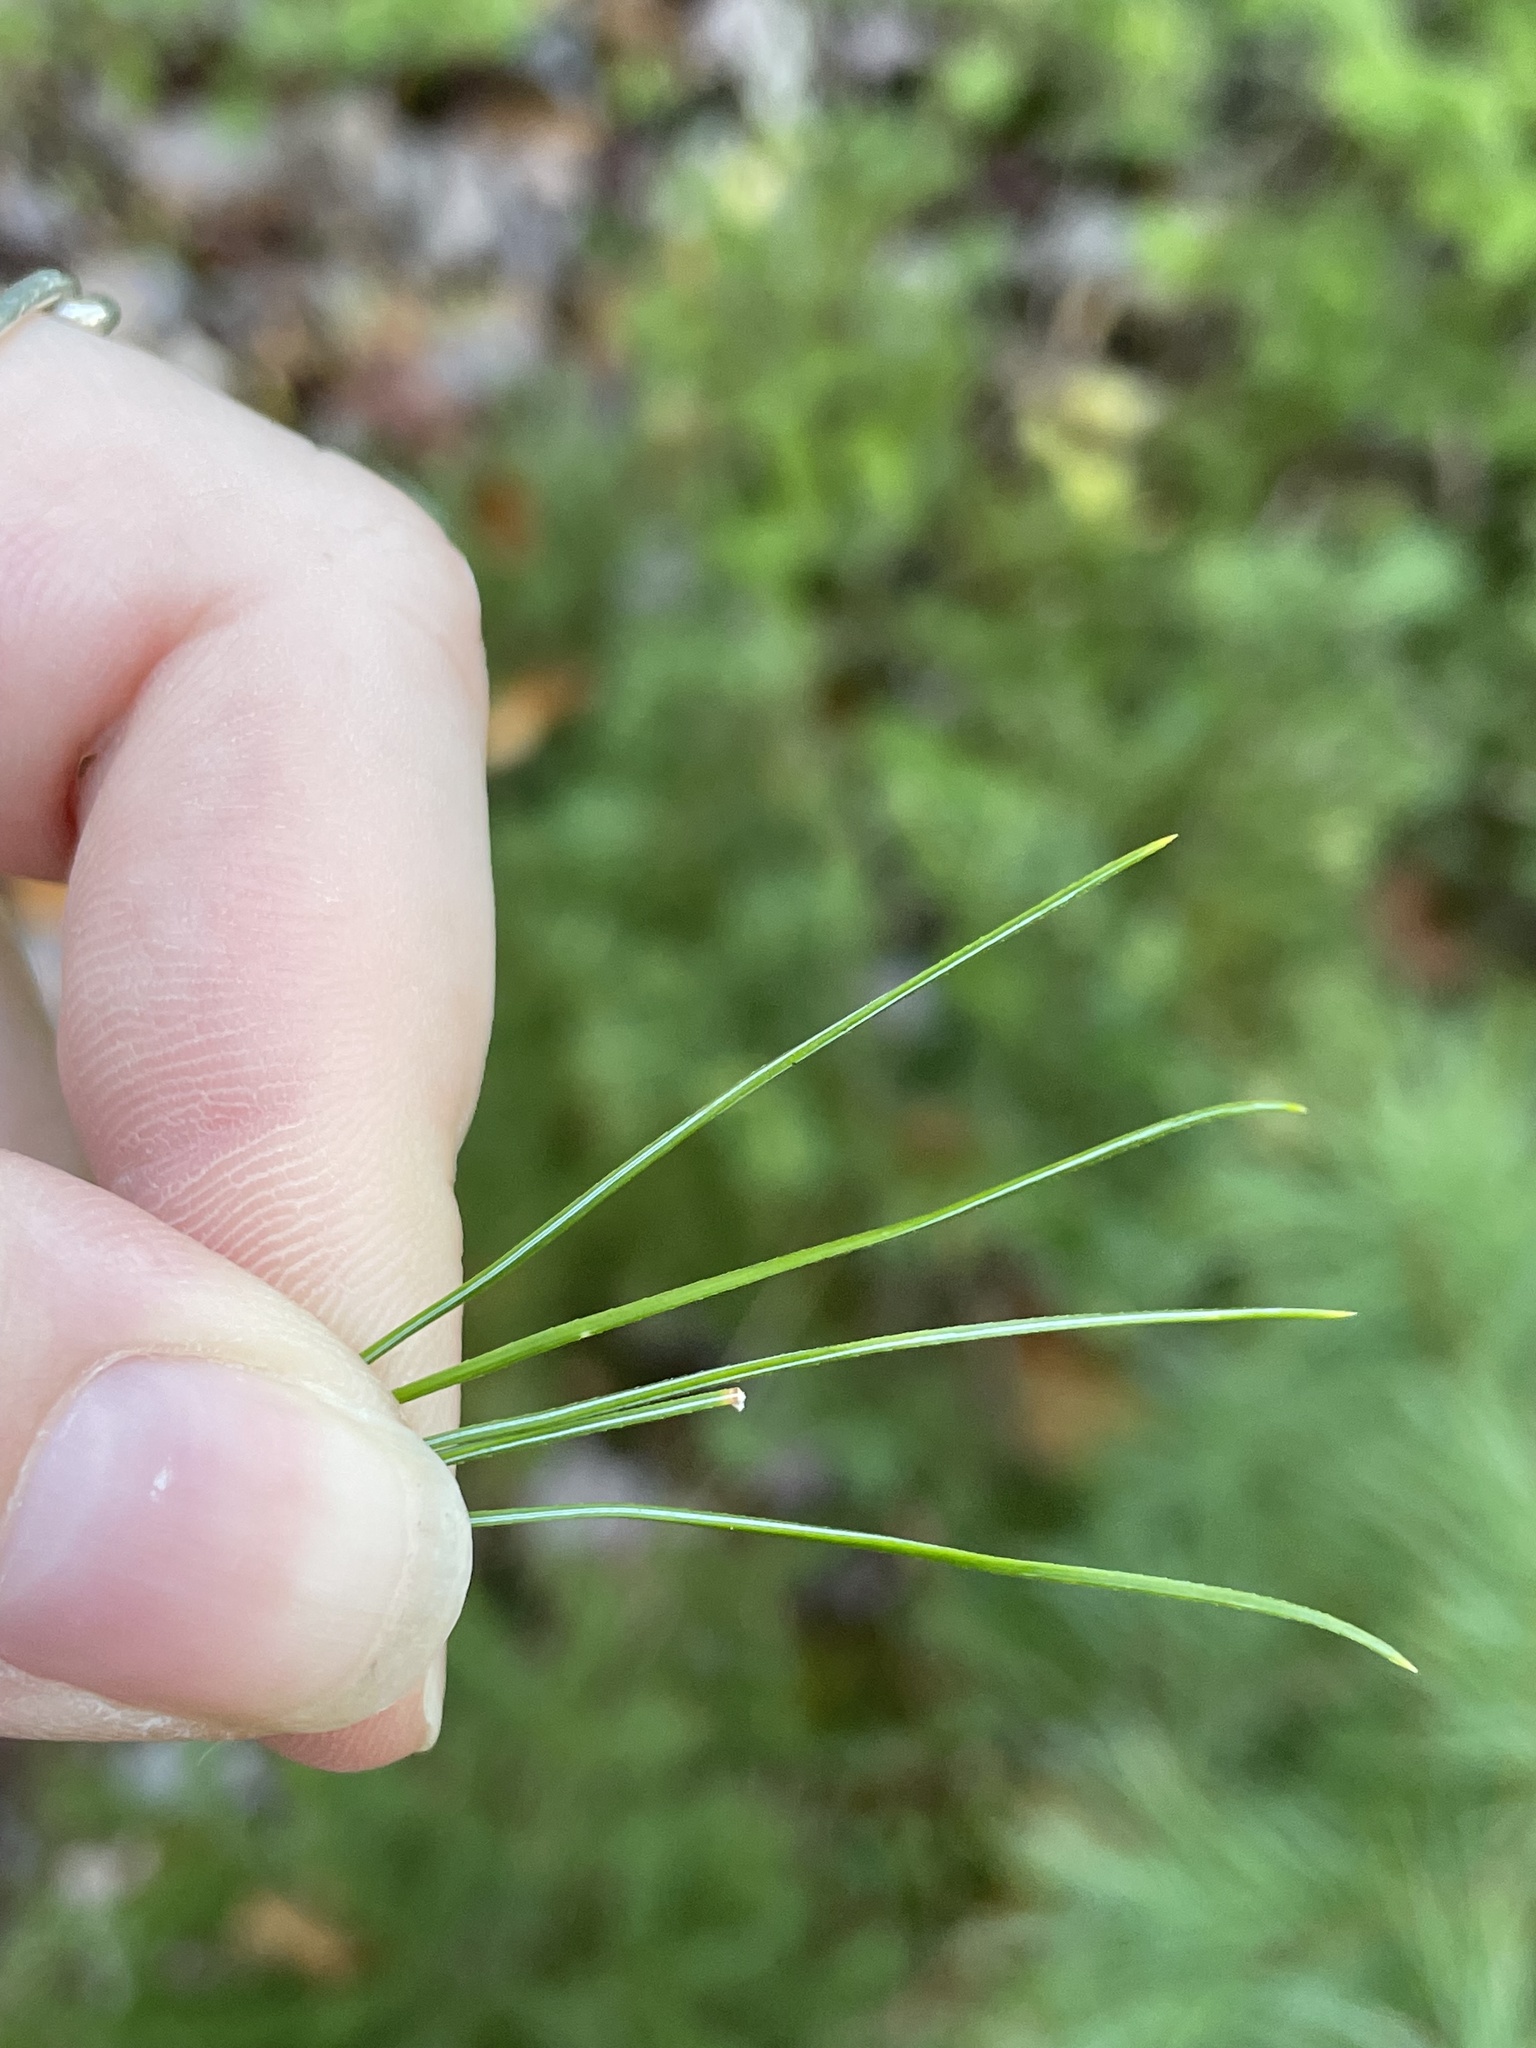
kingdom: Plantae
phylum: Tracheophyta
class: Pinopsida
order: Pinales
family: Pinaceae
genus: Pinus
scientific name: Pinus strobus
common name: Weymouth pine
